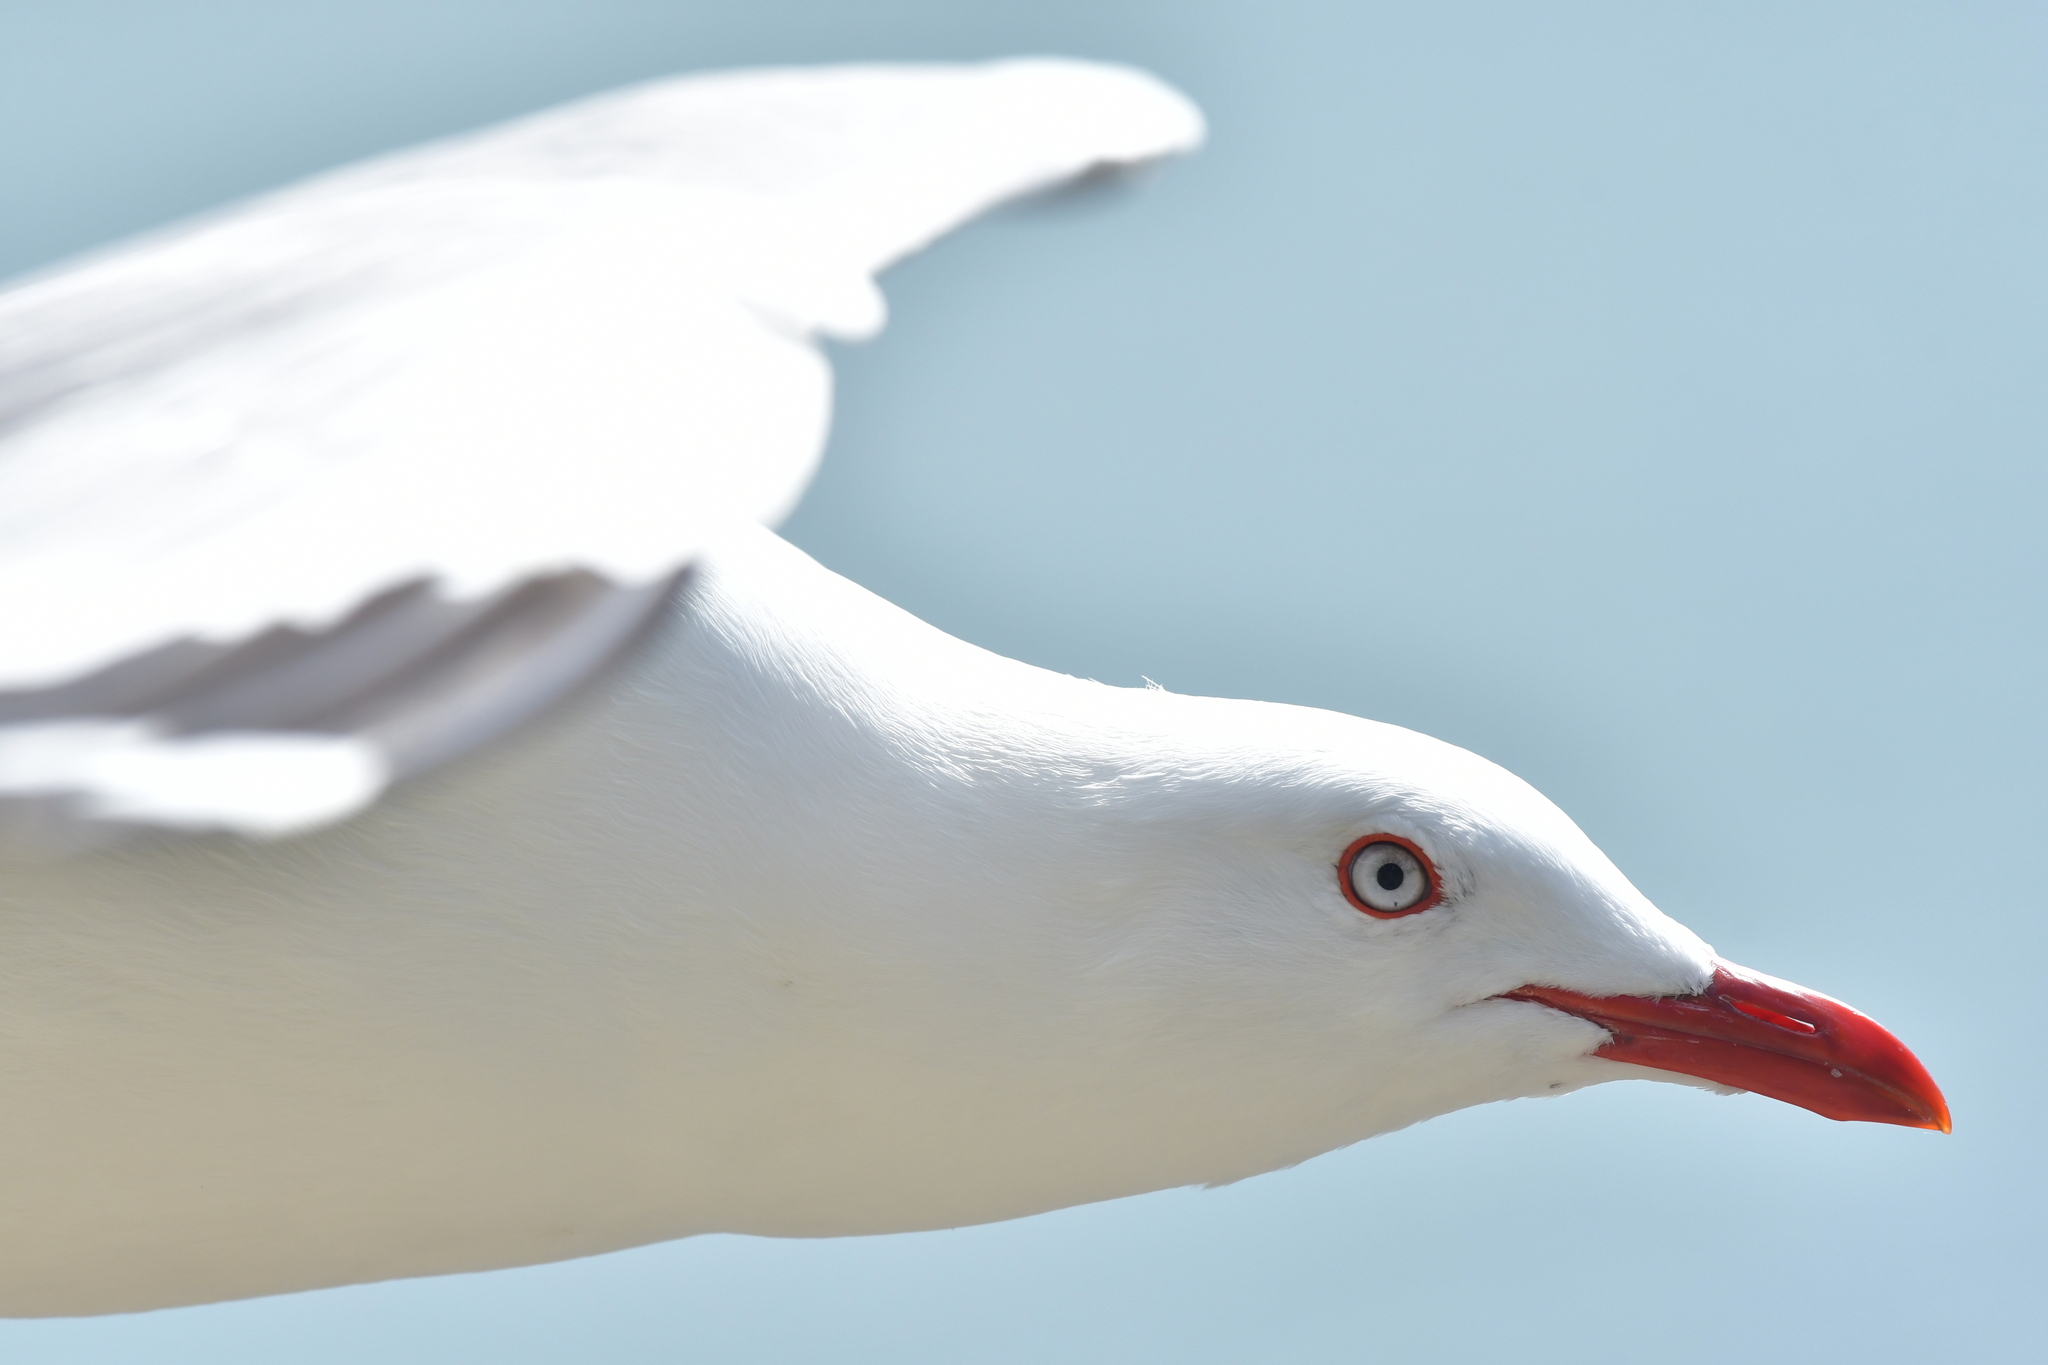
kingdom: Animalia
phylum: Chordata
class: Aves
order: Charadriiformes
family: Laridae
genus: Chroicocephalus
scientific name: Chroicocephalus novaehollandiae
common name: Silver gull
